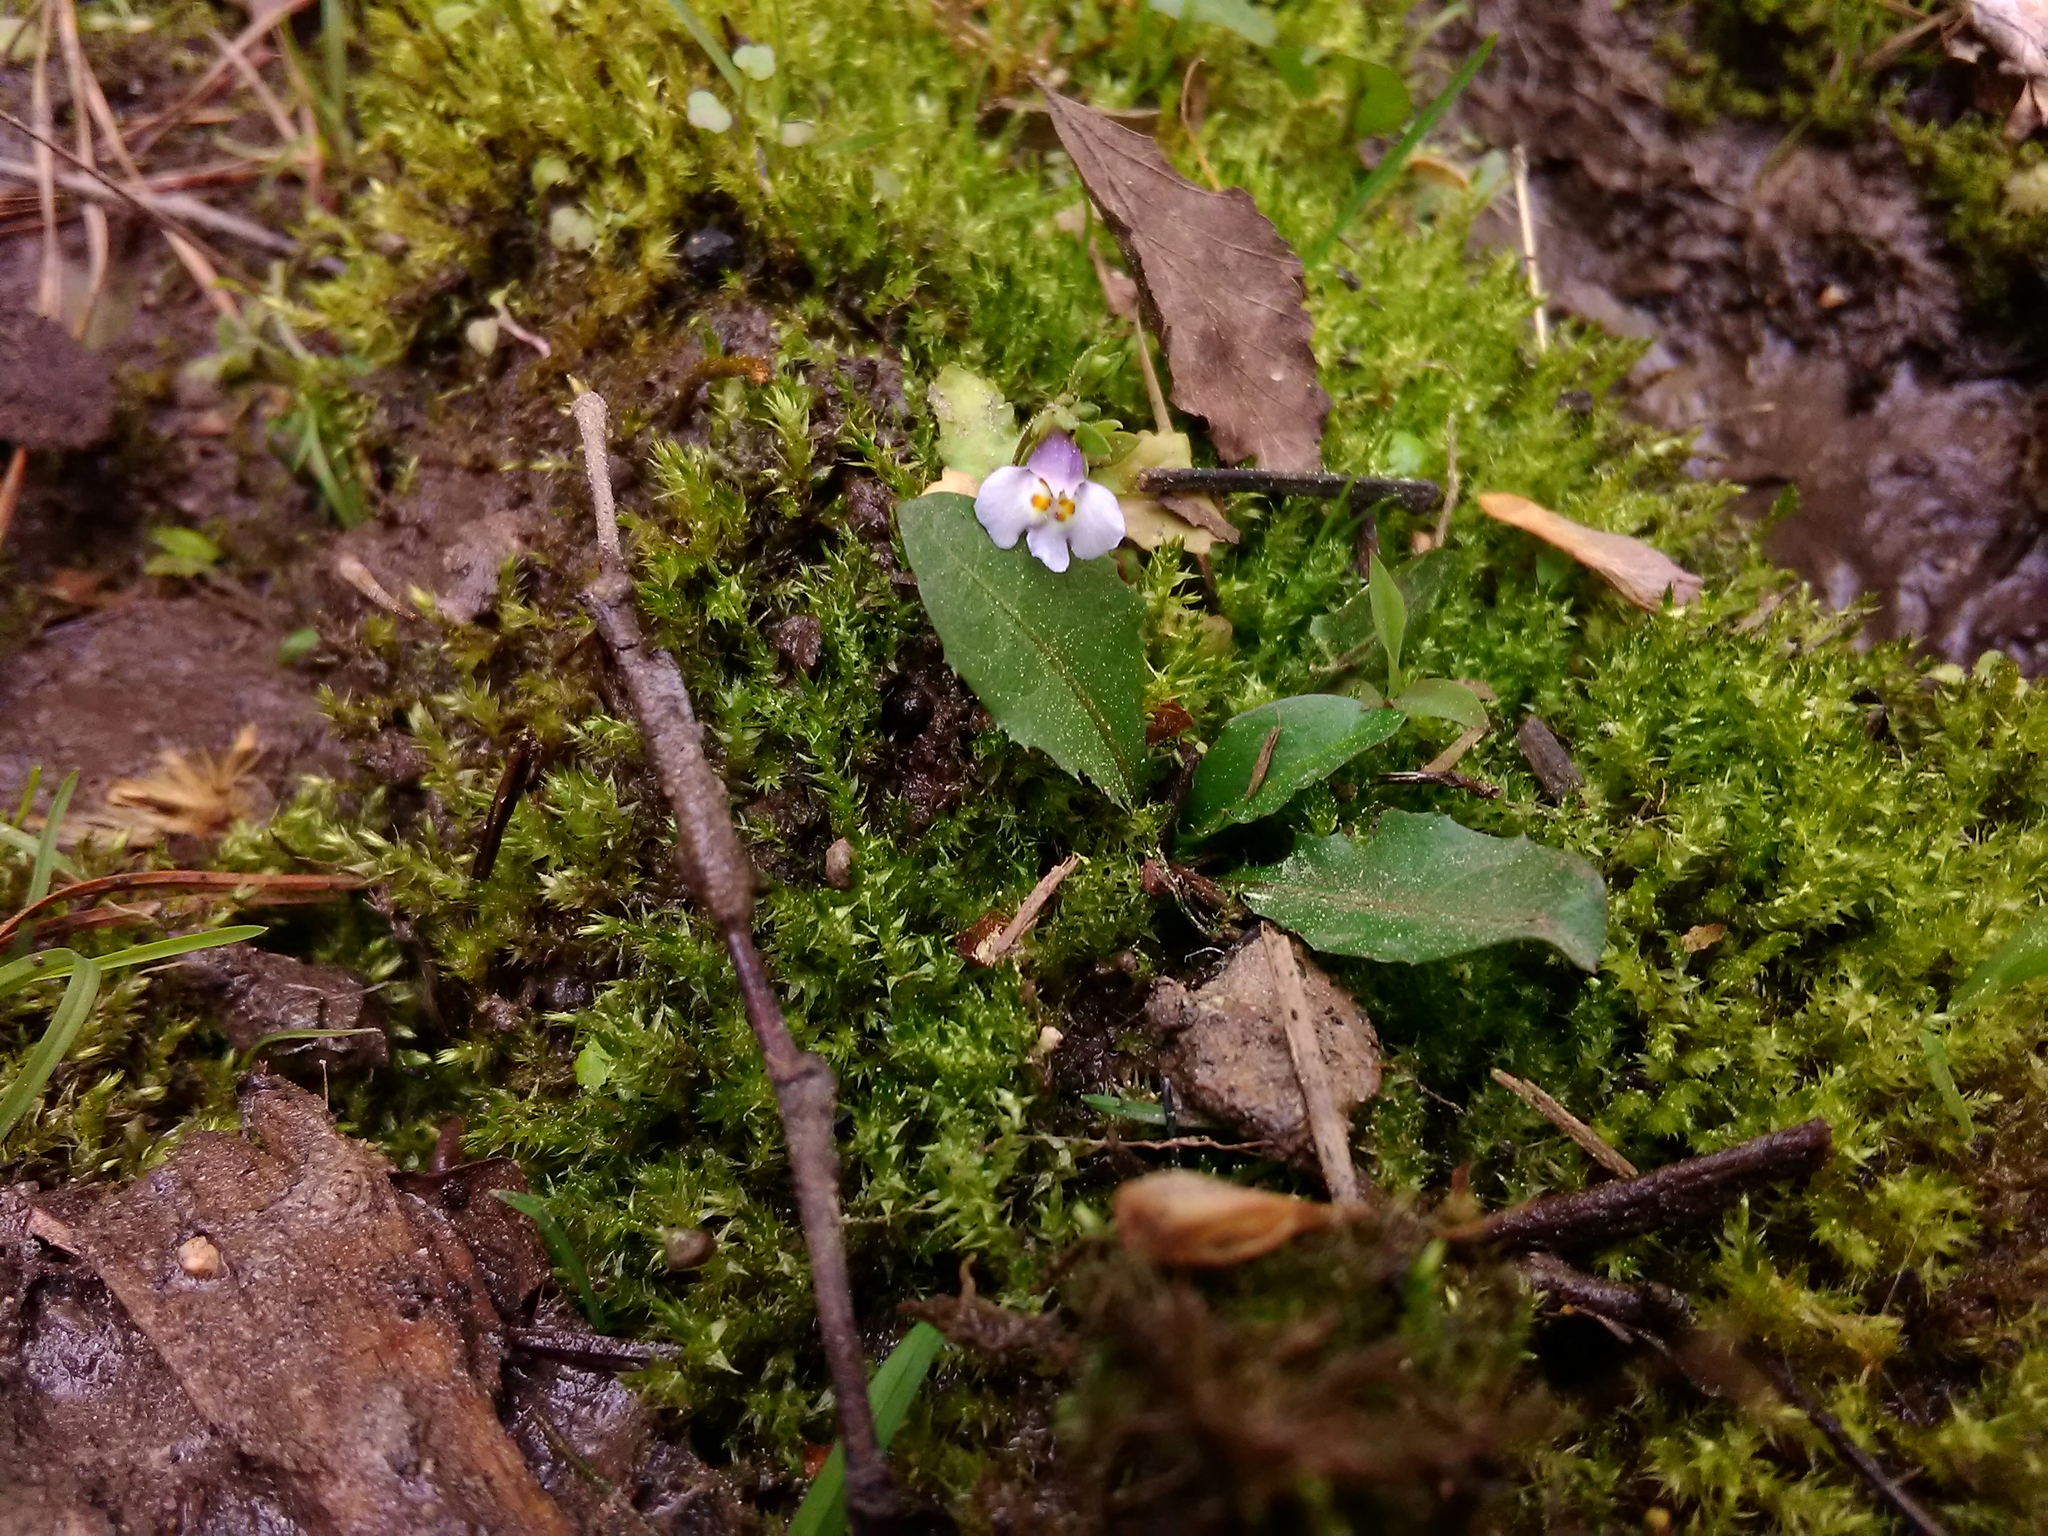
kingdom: Plantae
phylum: Tracheophyta
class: Magnoliopsida
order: Lamiales
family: Mazaceae
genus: Mazus
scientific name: Mazus pumilus
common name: Japanese mazus
